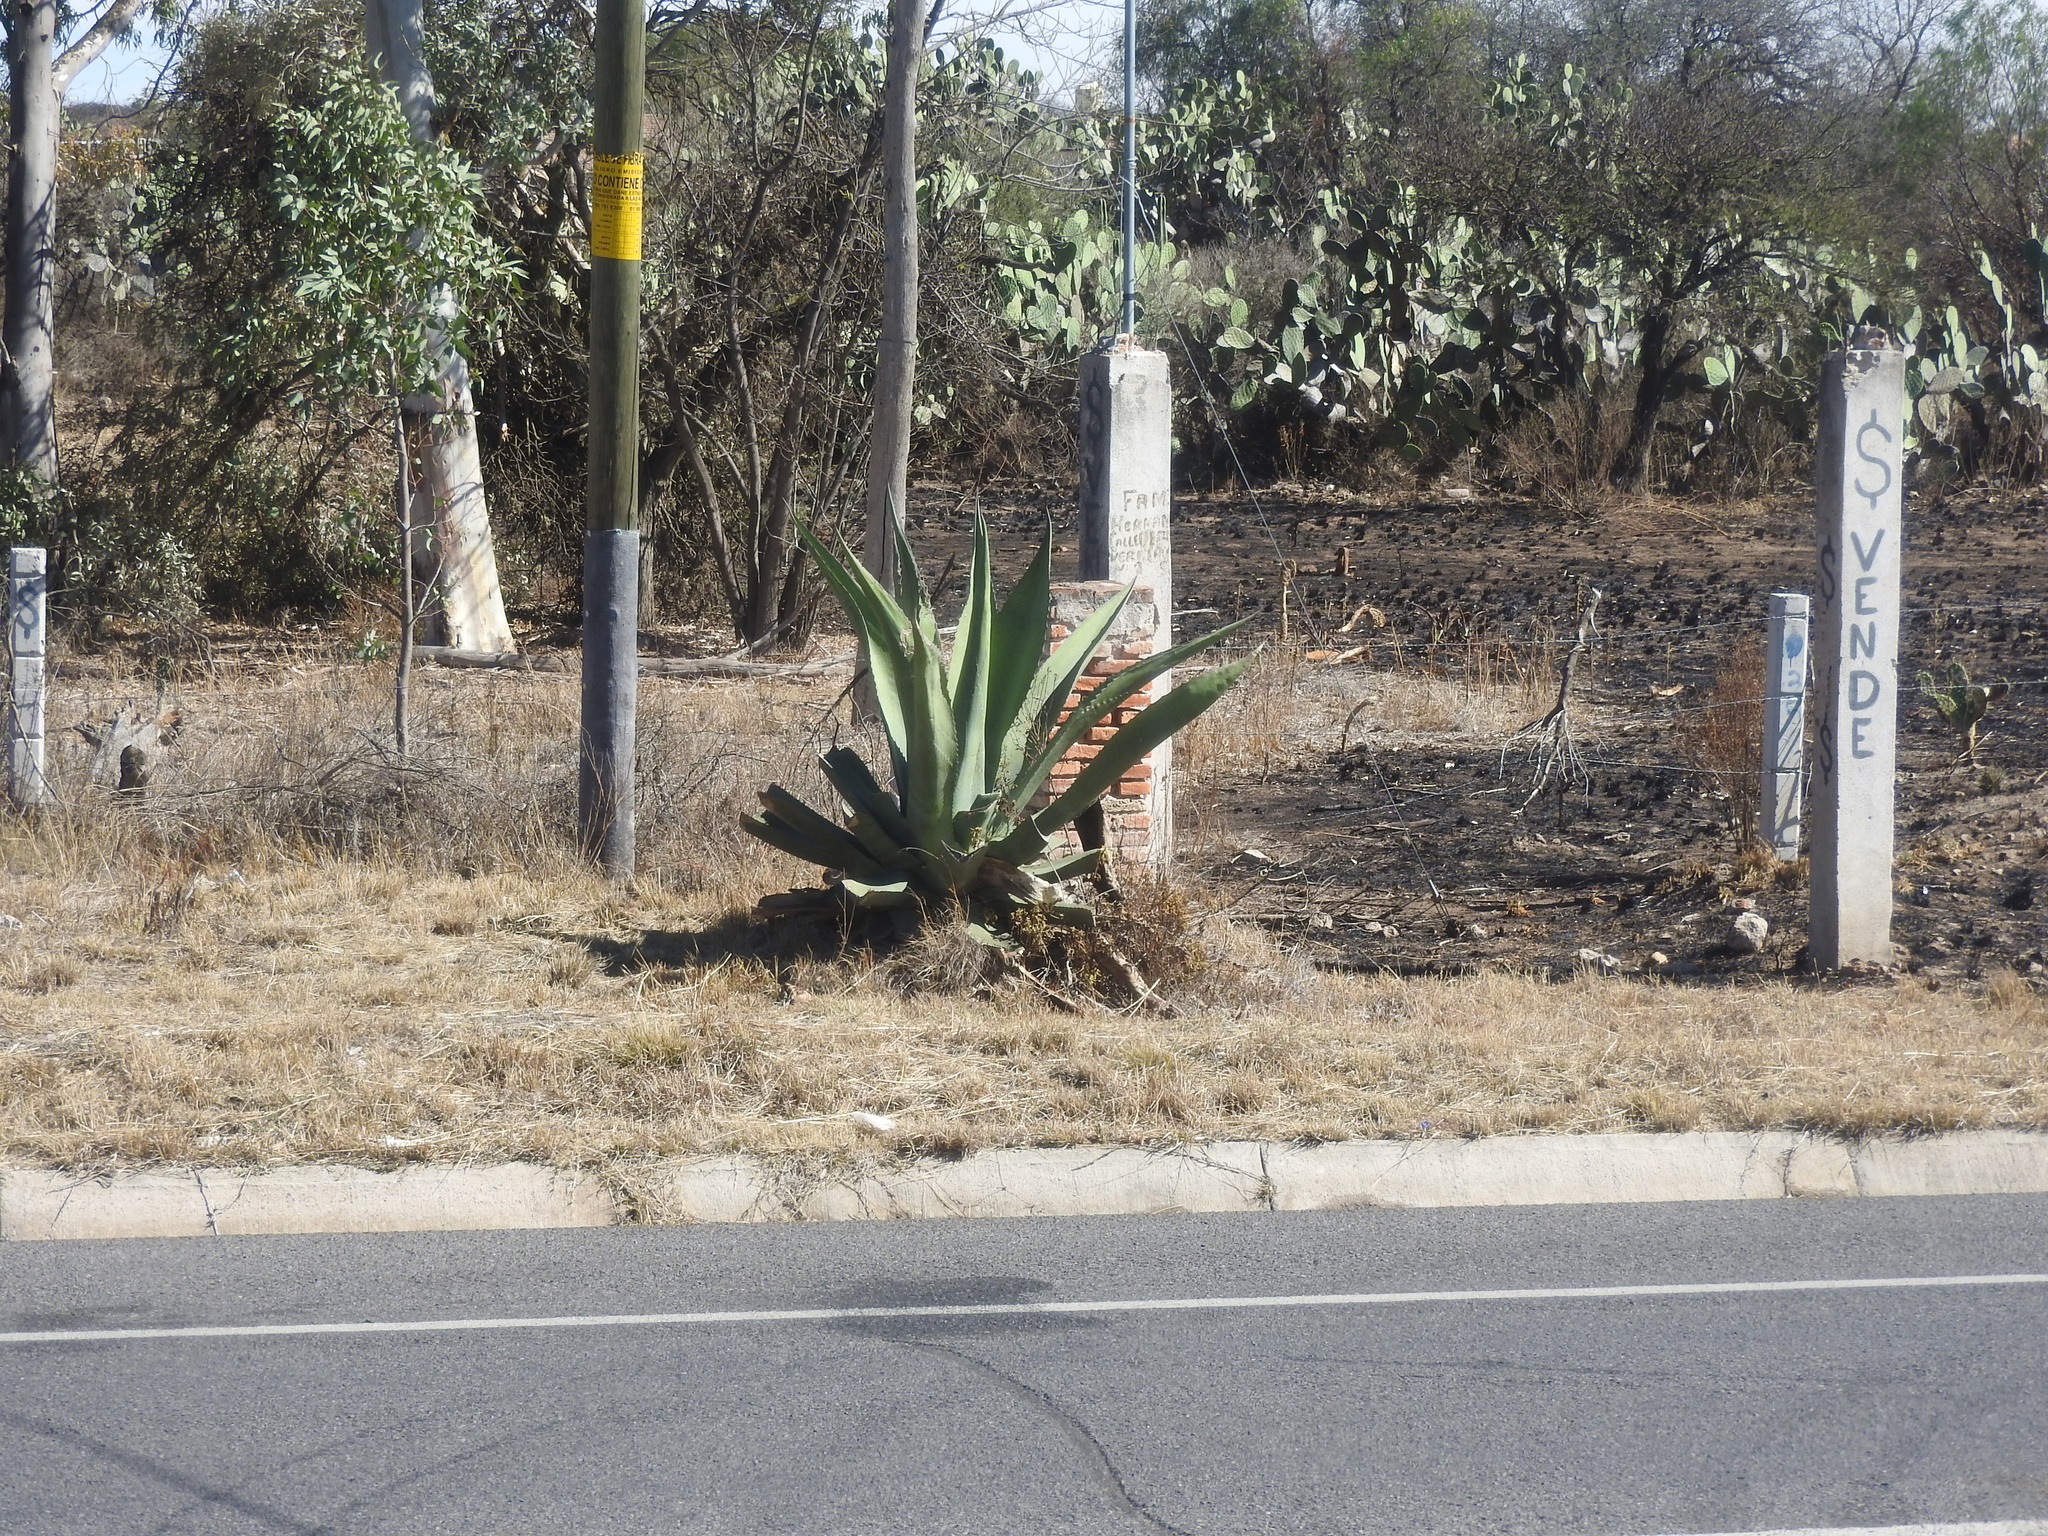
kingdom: Plantae
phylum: Tracheophyta
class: Liliopsida
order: Asparagales
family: Asparagaceae
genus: Agave
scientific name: Agave salmiana
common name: Pulque agave
